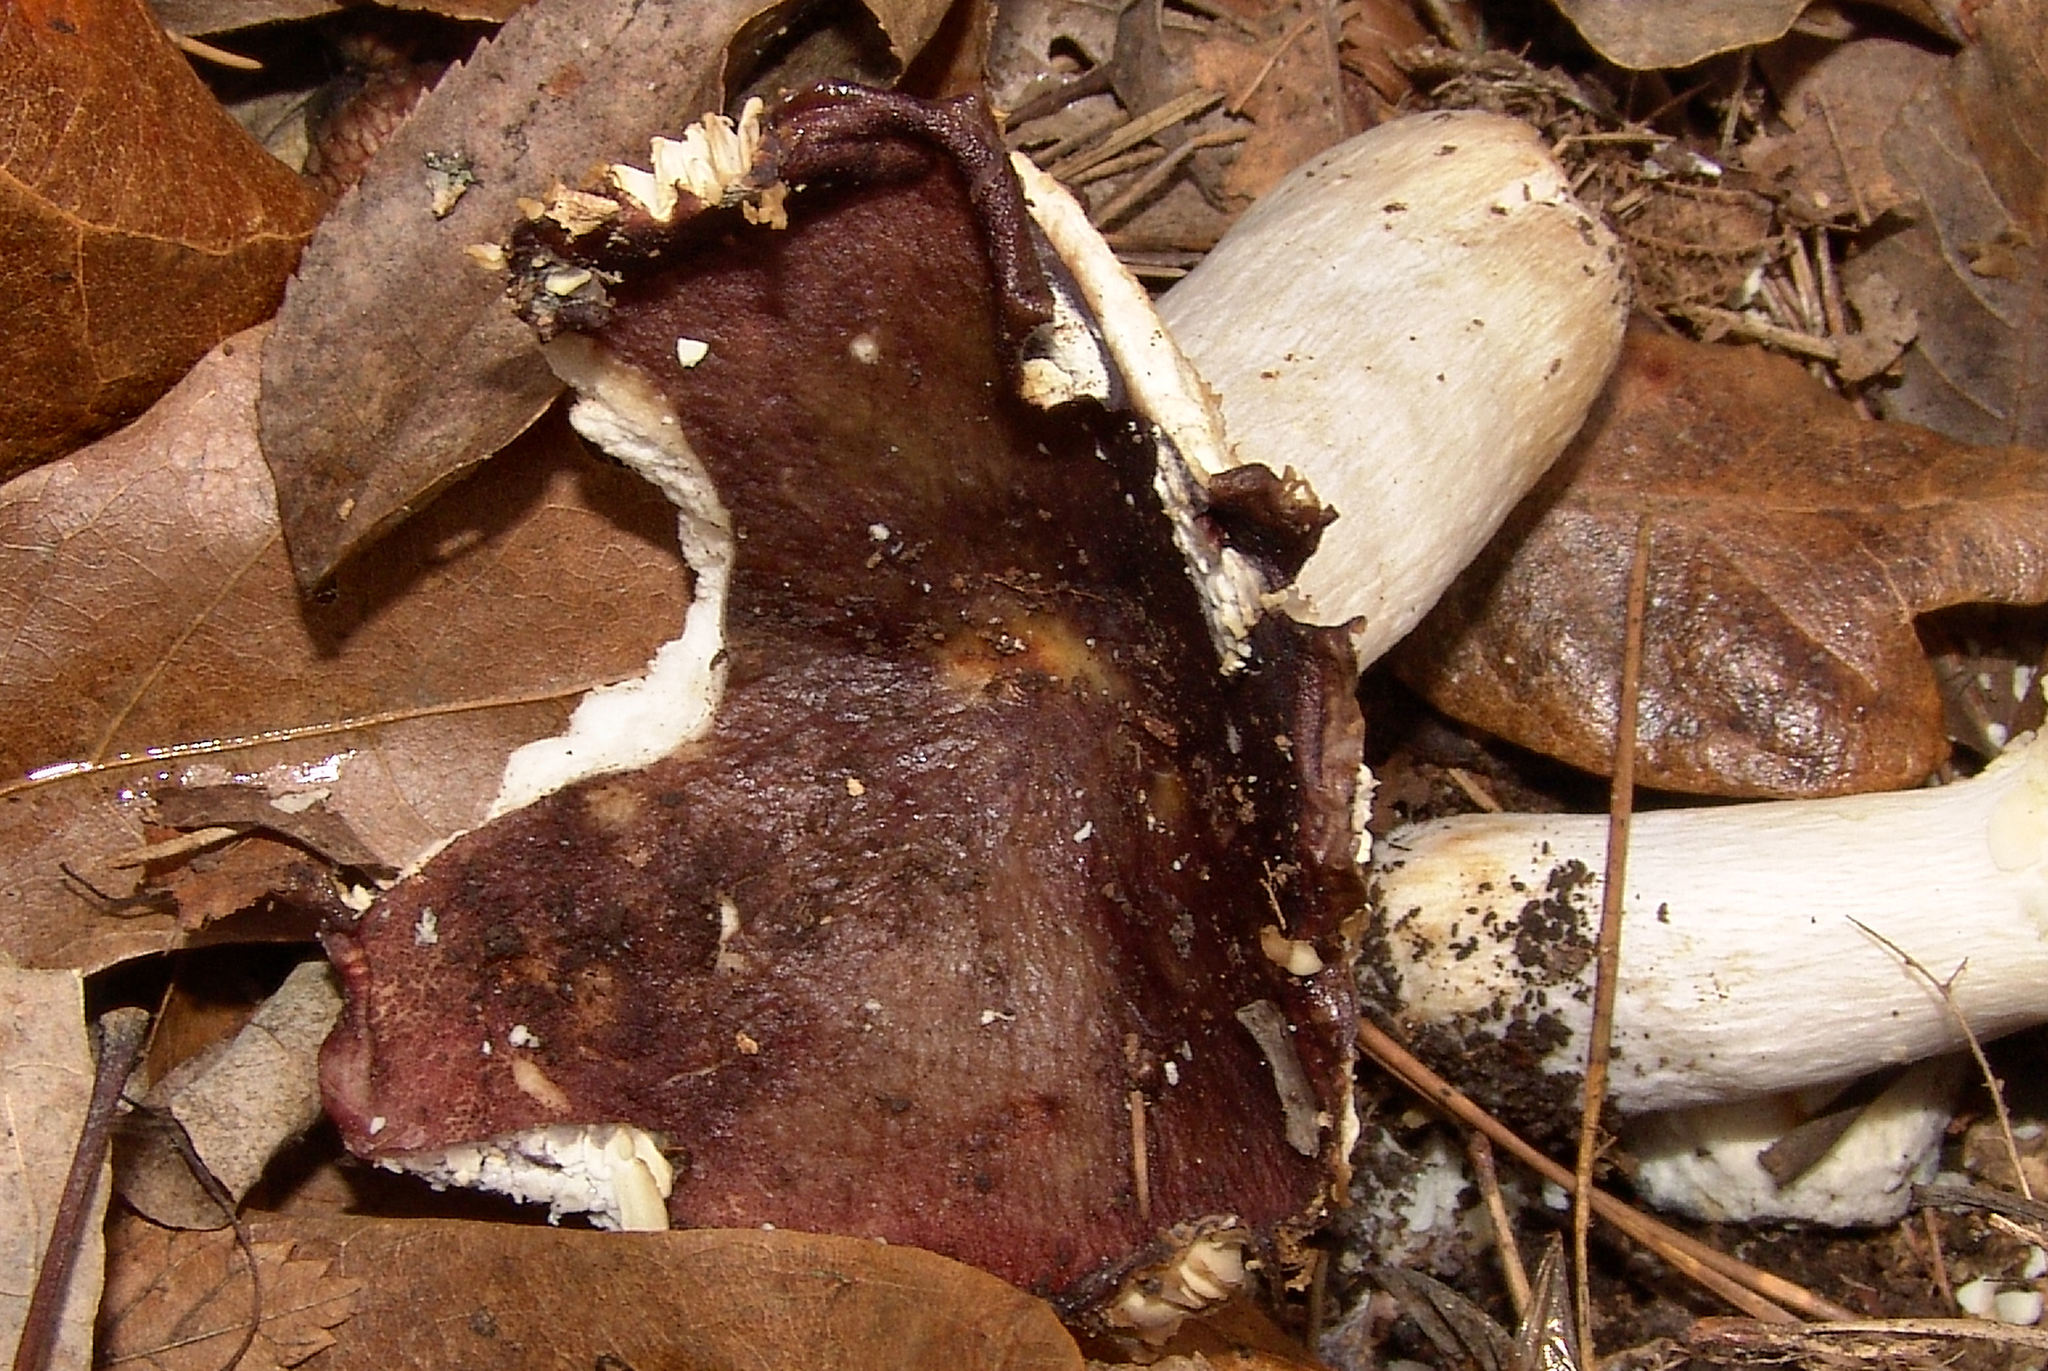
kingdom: Fungi
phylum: Basidiomycota
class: Agaricomycetes
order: Russulales
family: Russulaceae
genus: Russula
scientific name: Russula
